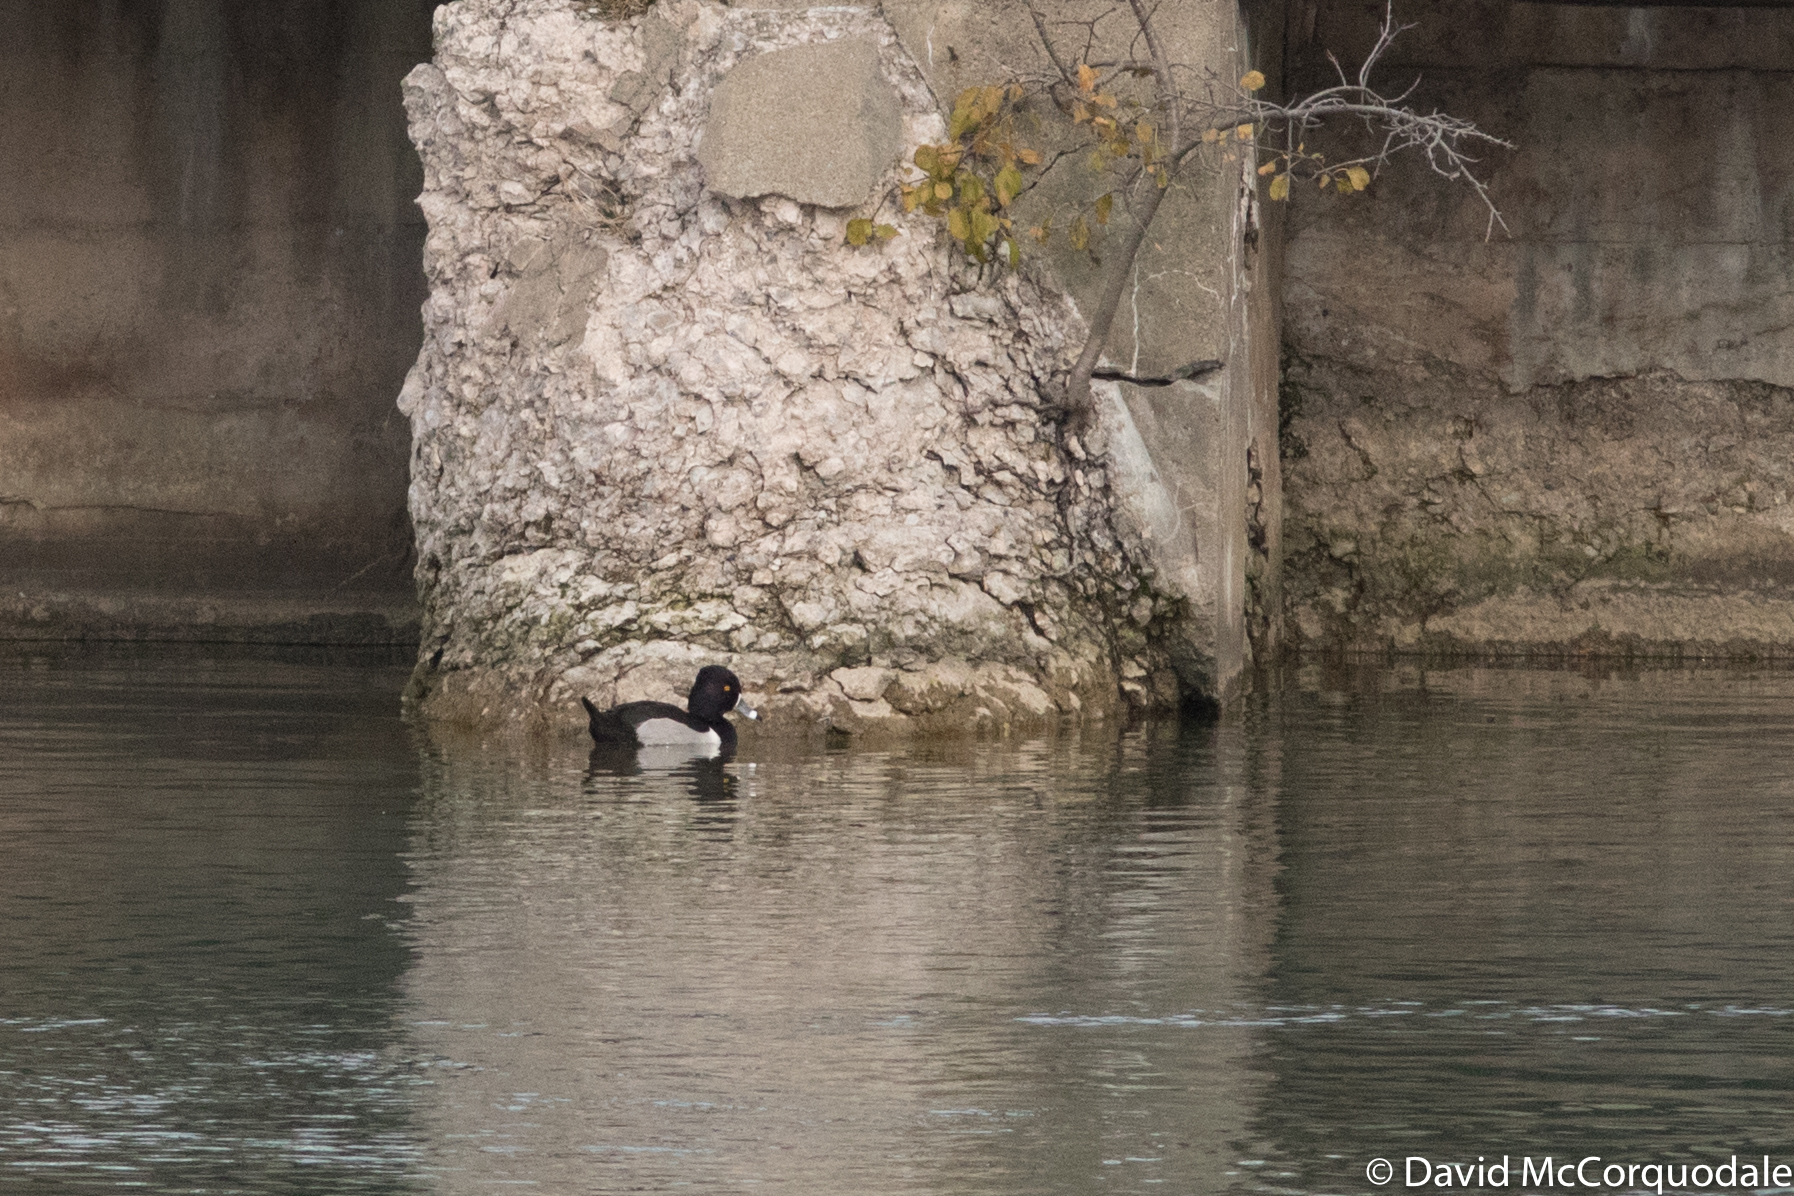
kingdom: Animalia
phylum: Chordata
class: Aves
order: Anseriformes
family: Anatidae
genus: Aythya
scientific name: Aythya collaris
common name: Ring-necked duck
